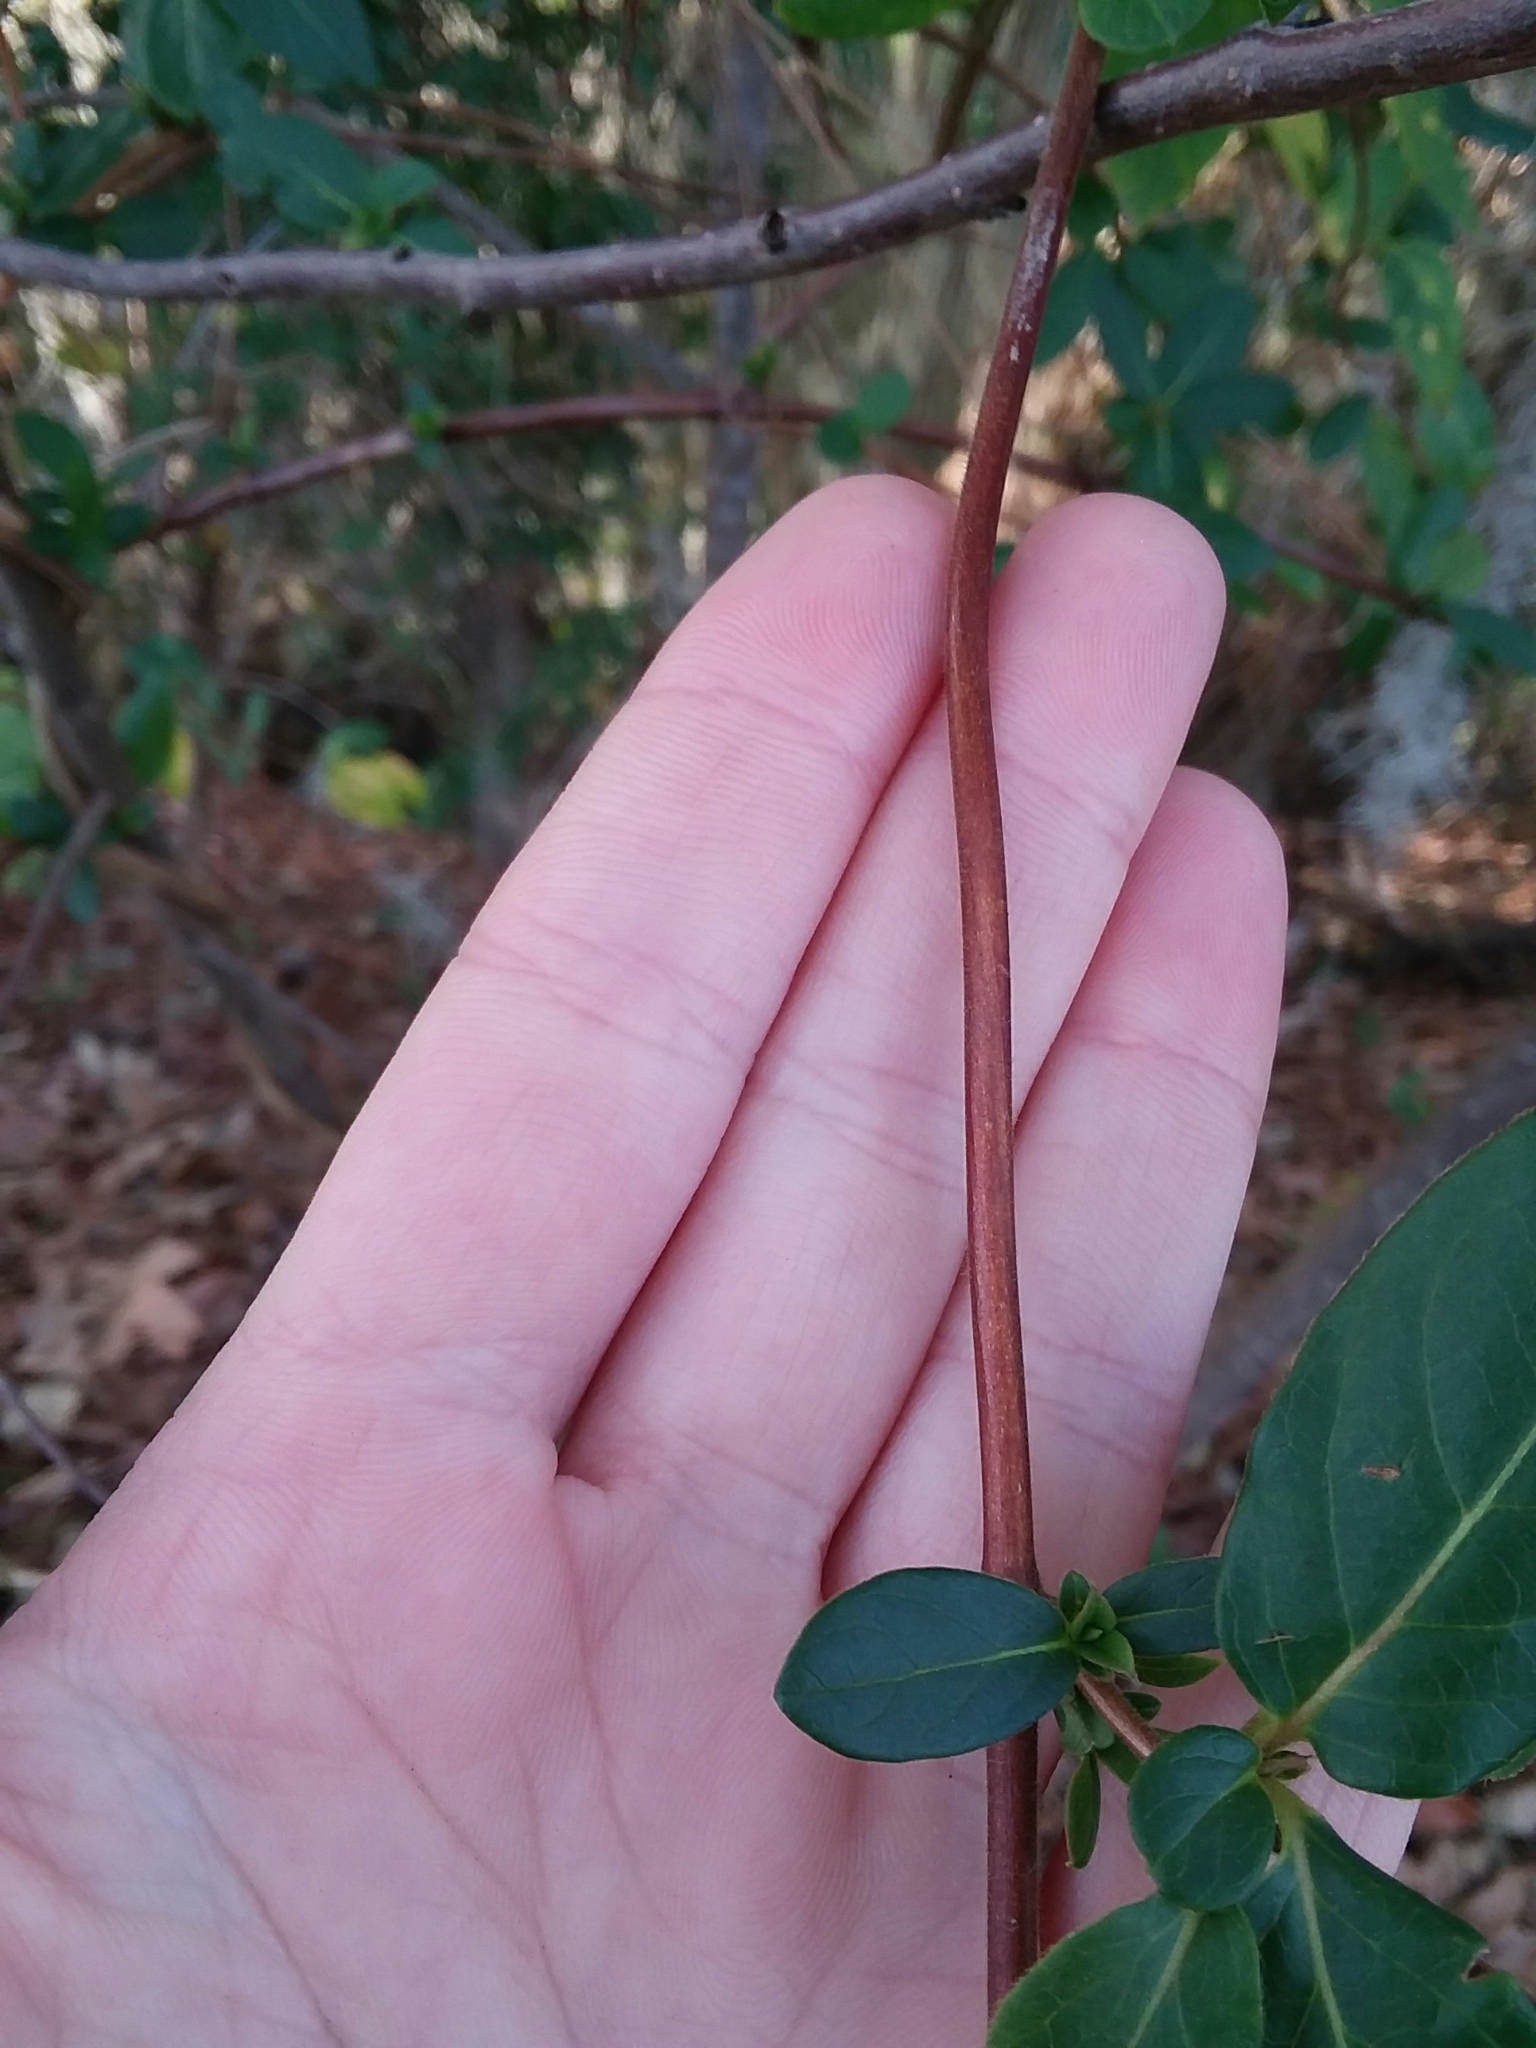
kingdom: Plantae
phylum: Tracheophyta
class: Magnoliopsida
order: Dipsacales
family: Caprifoliaceae
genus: Lonicera
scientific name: Lonicera japonica
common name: Japanese honeysuckle
